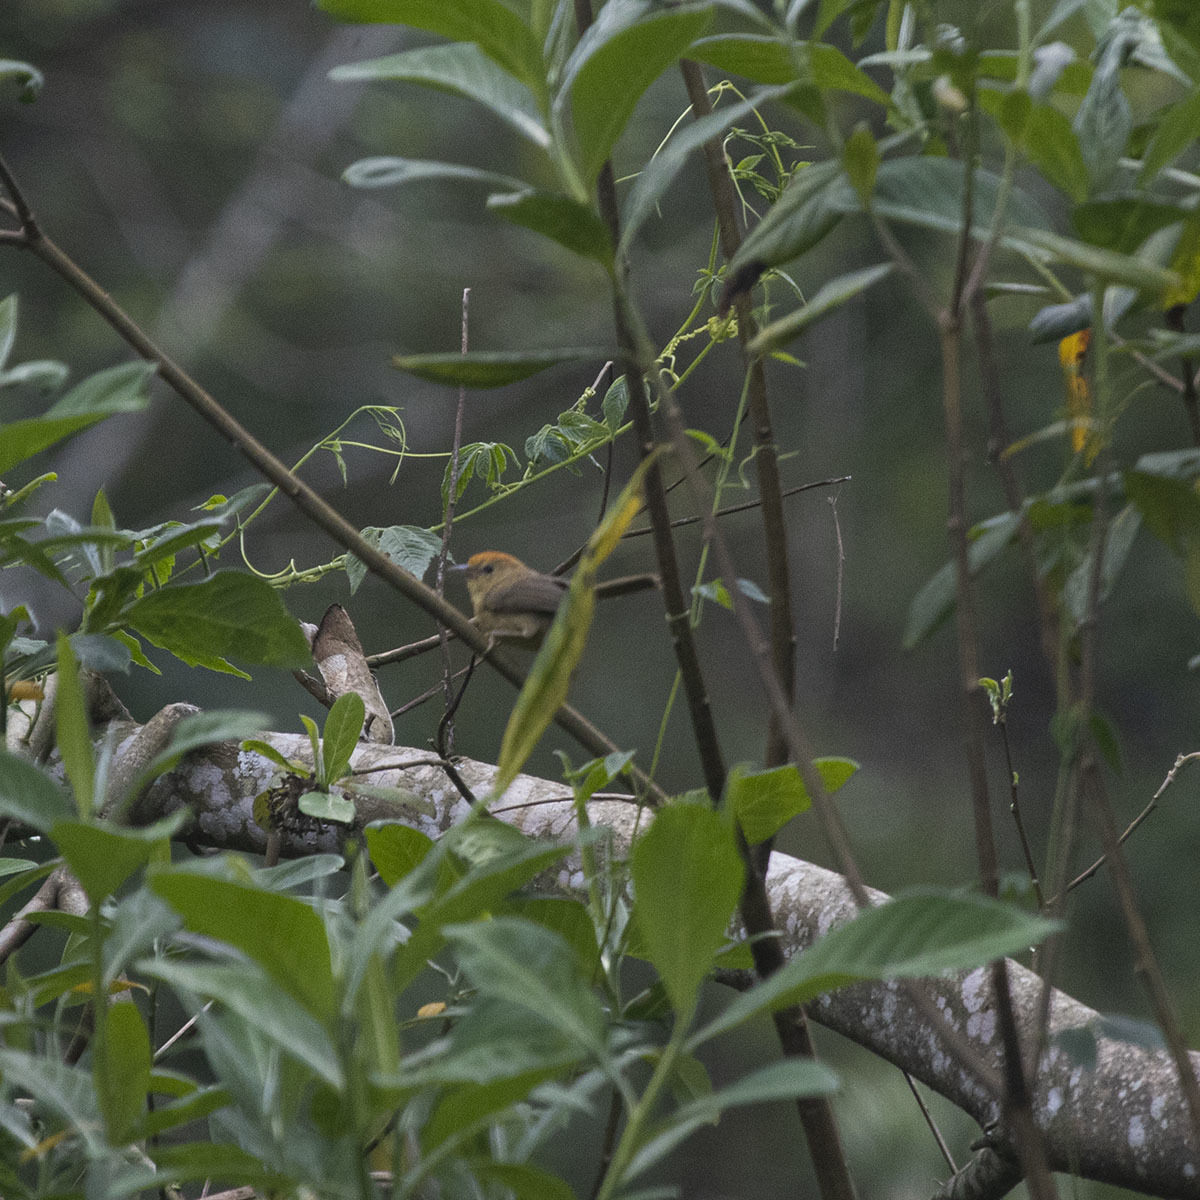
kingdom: Animalia
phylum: Chordata
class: Aves
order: Passeriformes
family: Timaliidae
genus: Stachyridopsis
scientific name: Stachyridopsis ruficeps
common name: Rufous-capped babbler
